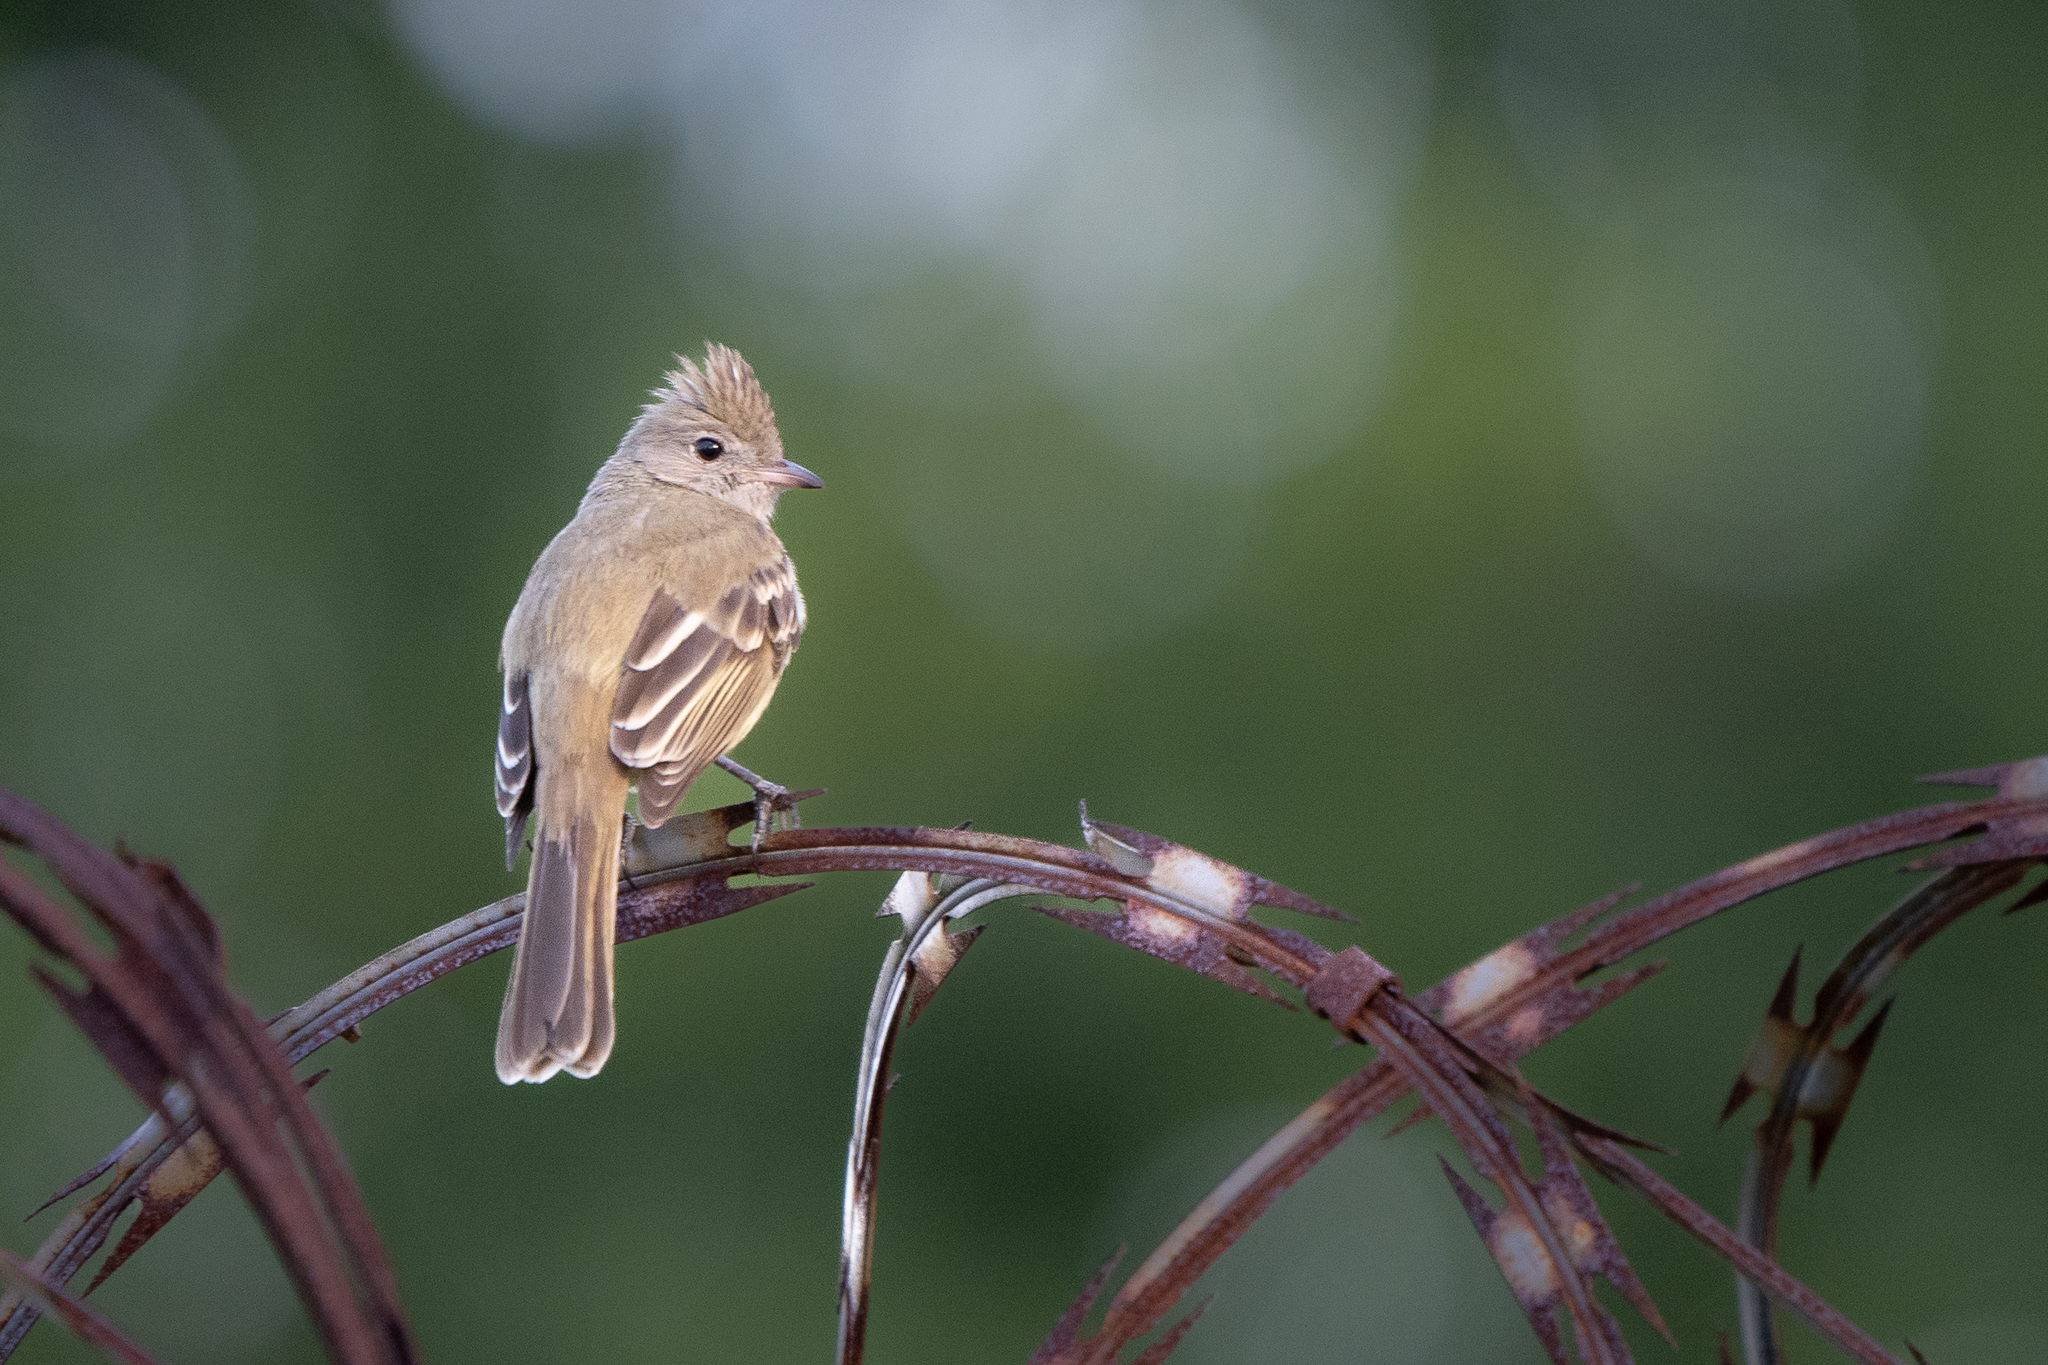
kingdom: Animalia
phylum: Chordata
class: Aves
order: Passeriformes
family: Tyrannidae
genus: Elaenia
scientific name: Elaenia flavogaster
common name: Yellow-bellied elaenia
